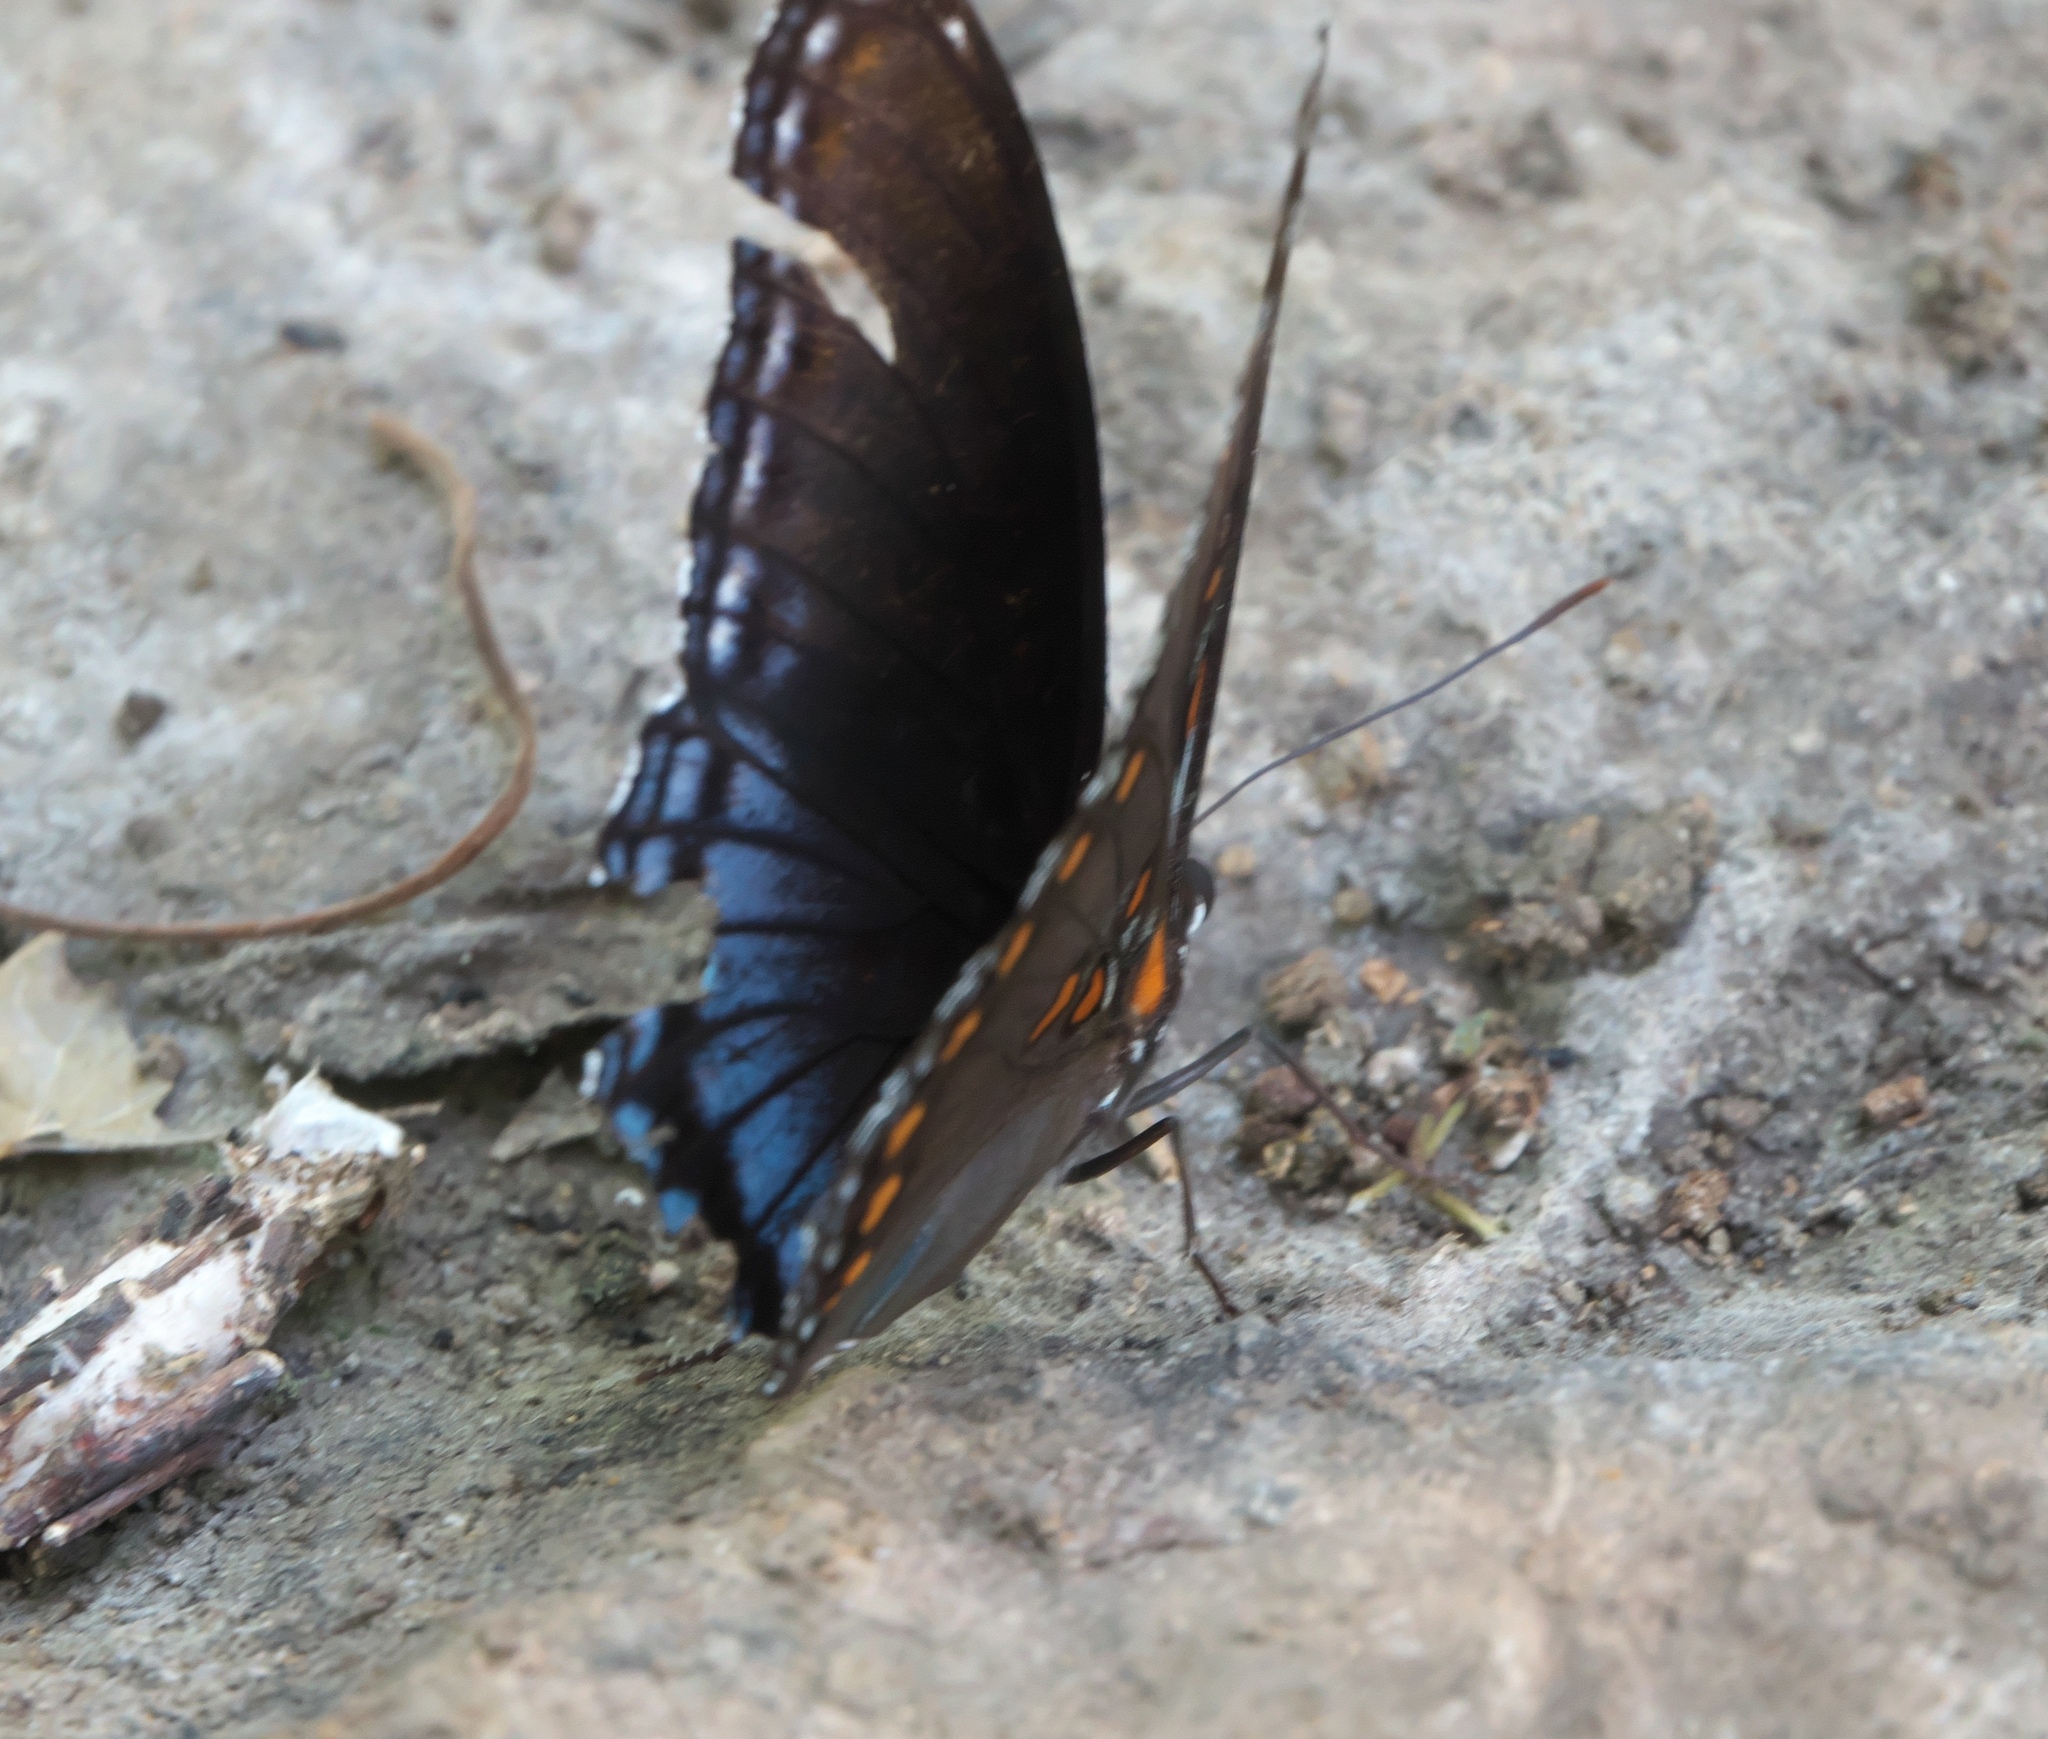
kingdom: Animalia
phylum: Arthropoda
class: Insecta
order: Lepidoptera
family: Nymphalidae
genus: Limenitis
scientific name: Limenitis astyanax
